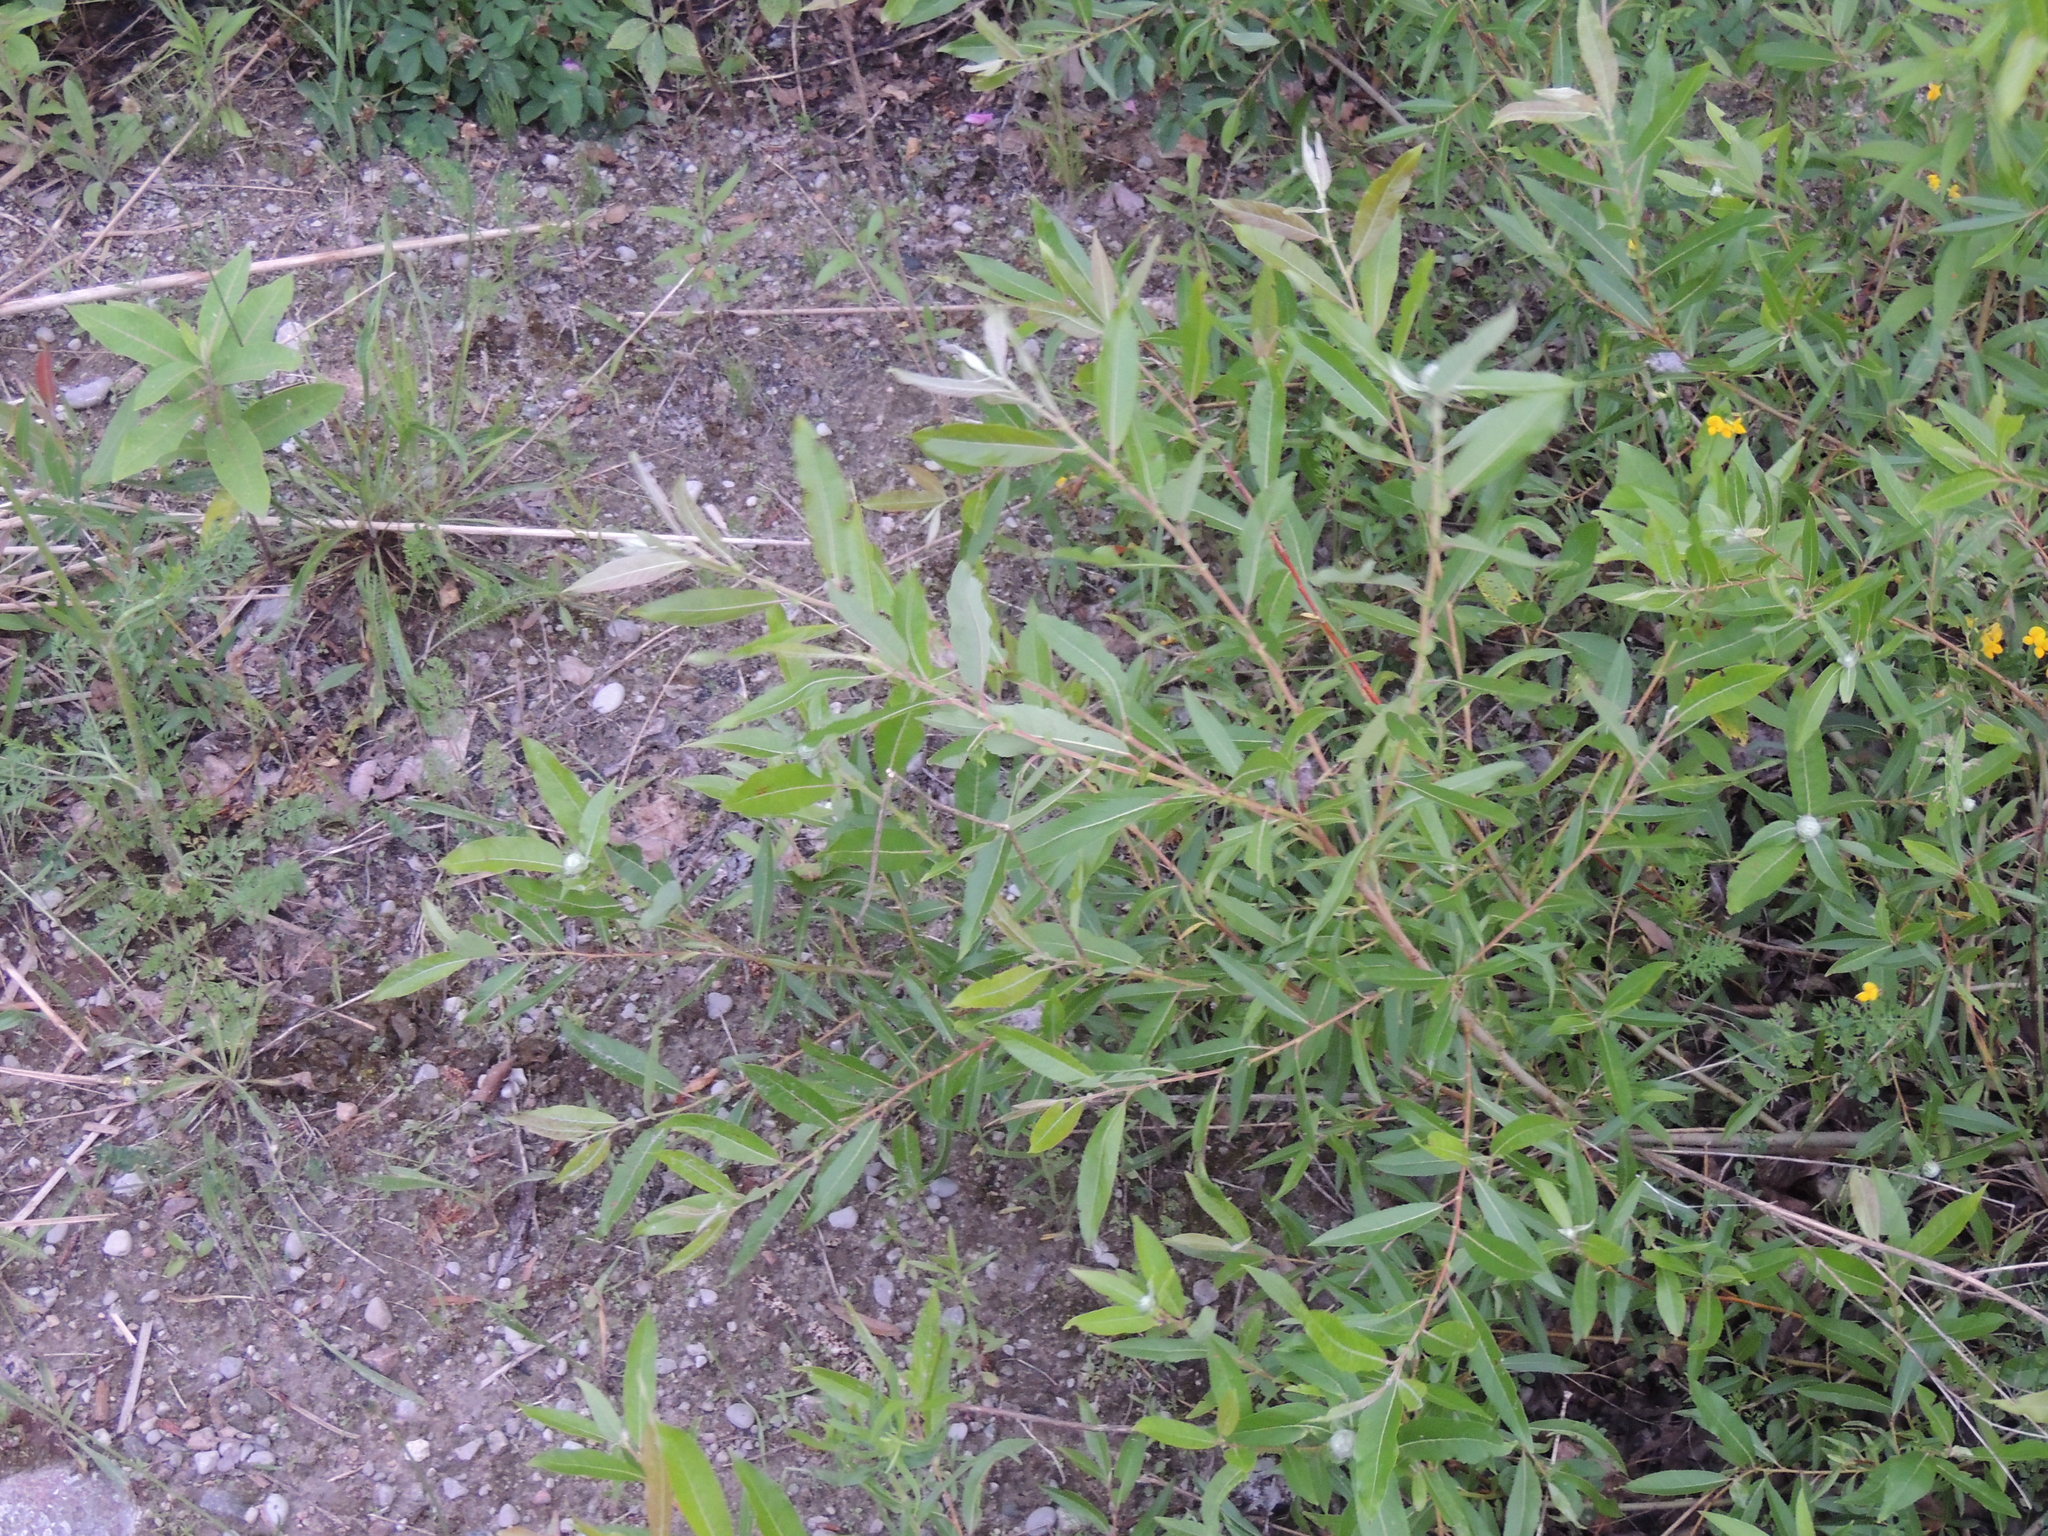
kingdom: Plantae
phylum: Tracheophyta
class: Magnoliopsida
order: Malpighiales
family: Salicaceae
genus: Salix
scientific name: Salix eriocephala
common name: Heart-leaved willow
